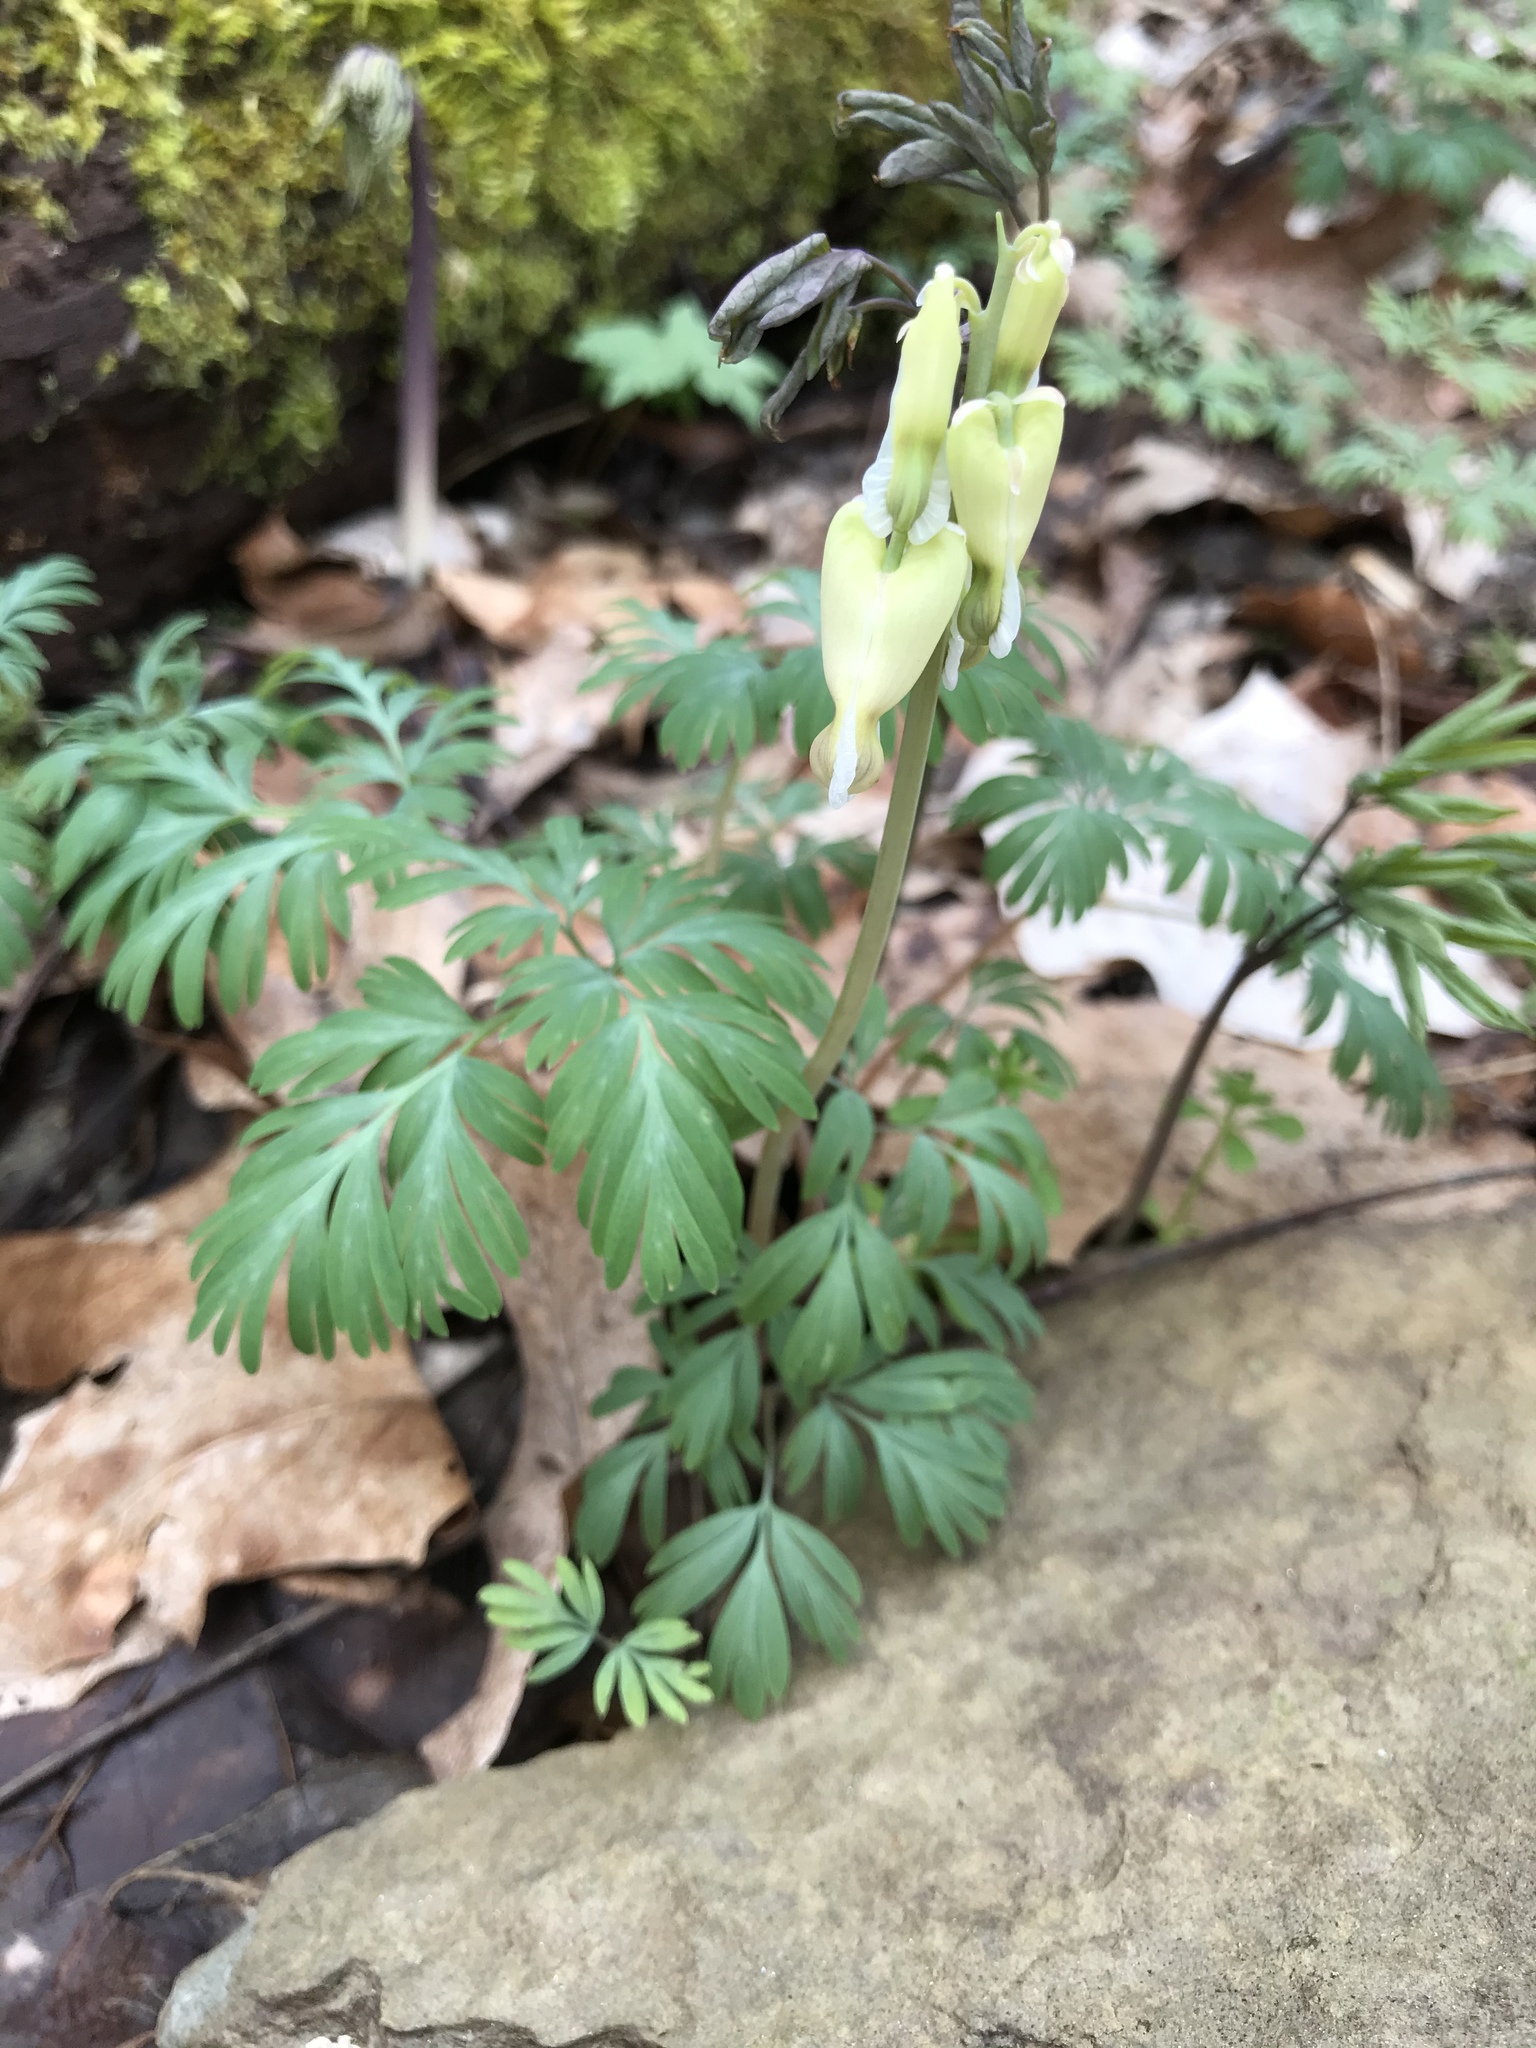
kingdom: Plantae
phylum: Tracheophyta
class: Magnoliopsida
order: Ranunculales
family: Papaveraceae
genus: Dicentra
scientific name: Dicentra canadensis
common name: Squirrel-corn
